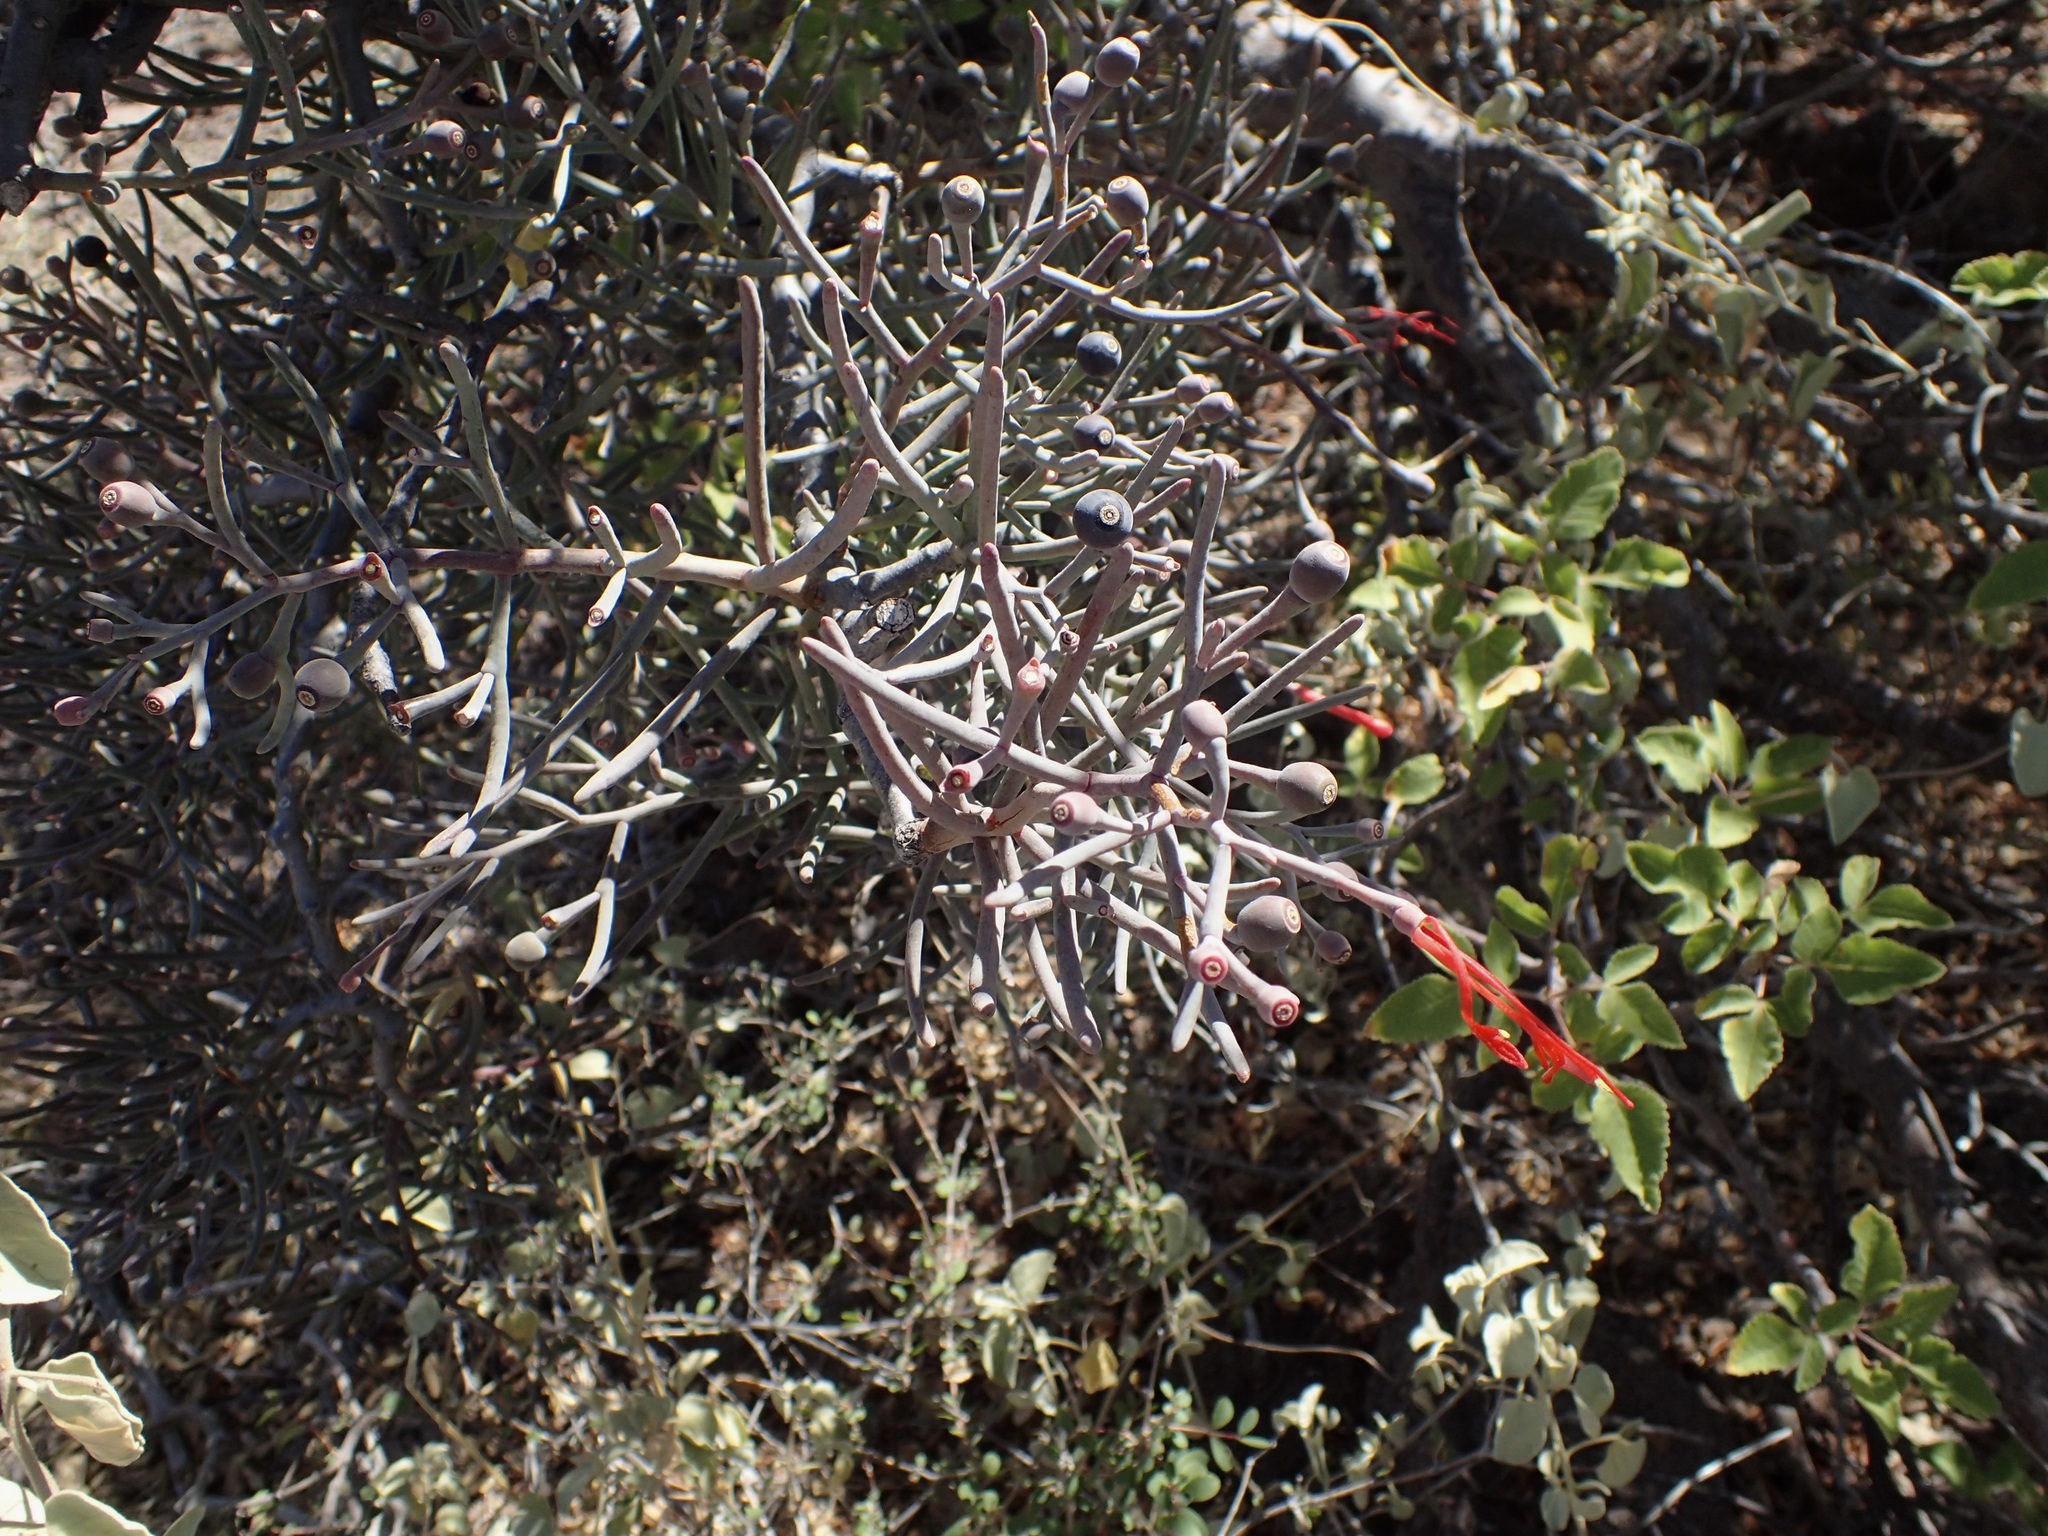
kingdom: Plantae
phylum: Tracheophyta
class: Magnoliopsida
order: Santalales
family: Loranthaceae
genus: Psittacanthus
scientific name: Psittacanthus sonorae
